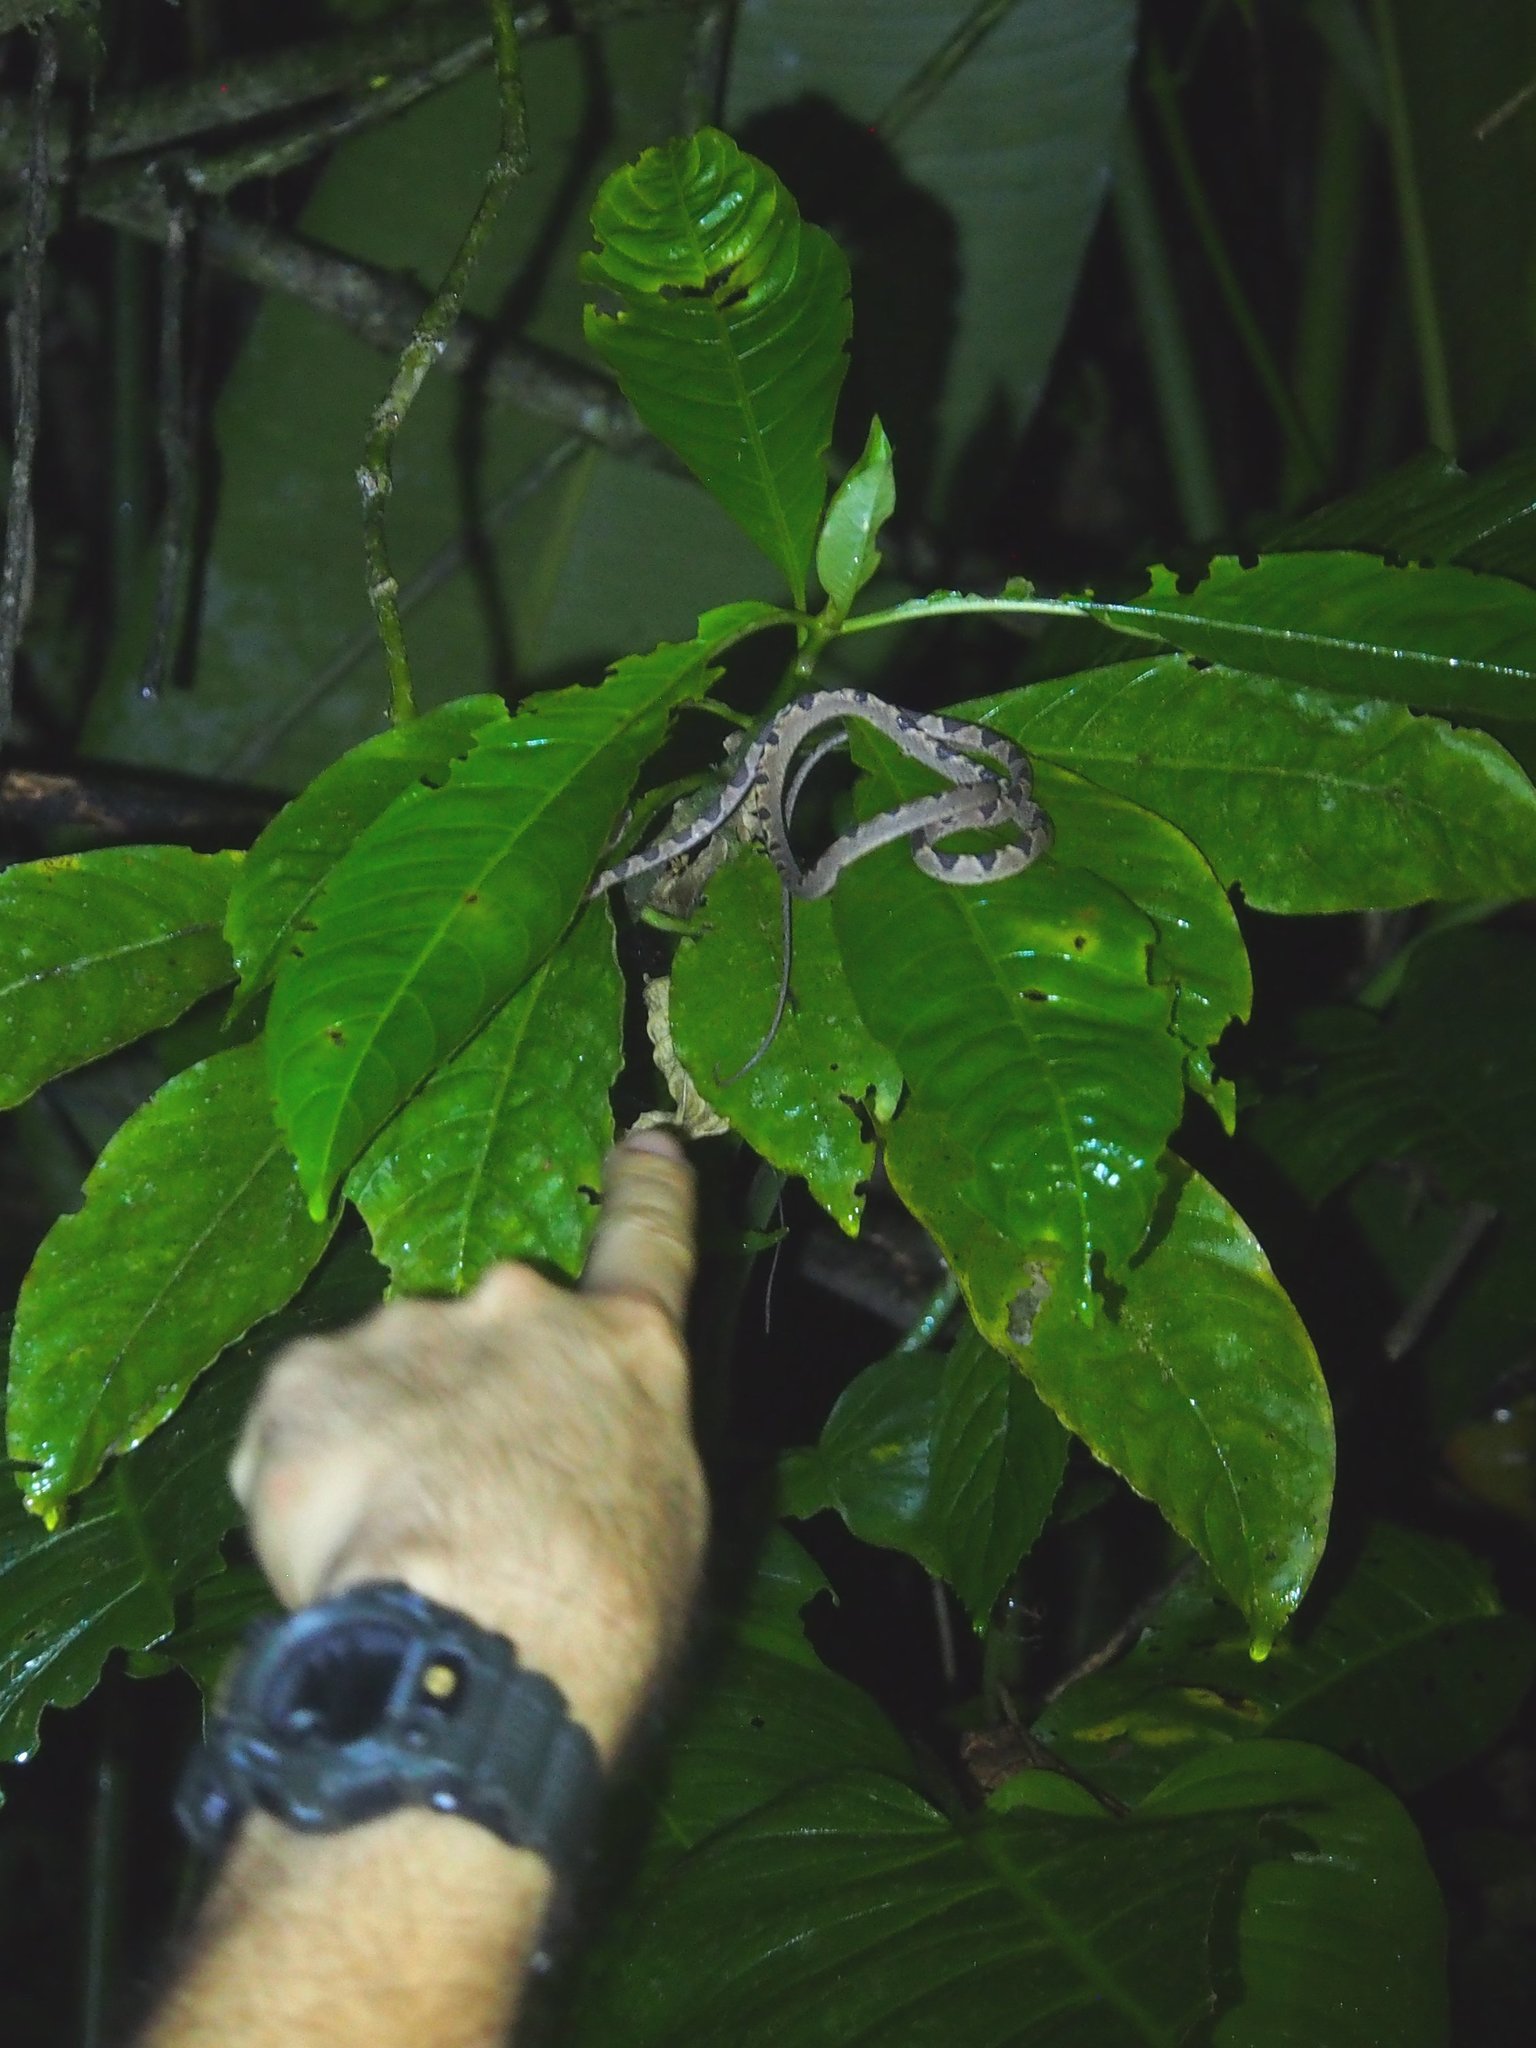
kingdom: Animalia
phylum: Chordata
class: Squamata
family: Colubridae
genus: Imantodes
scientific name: Imantodes cenchoa
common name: Blunthead tree snake
